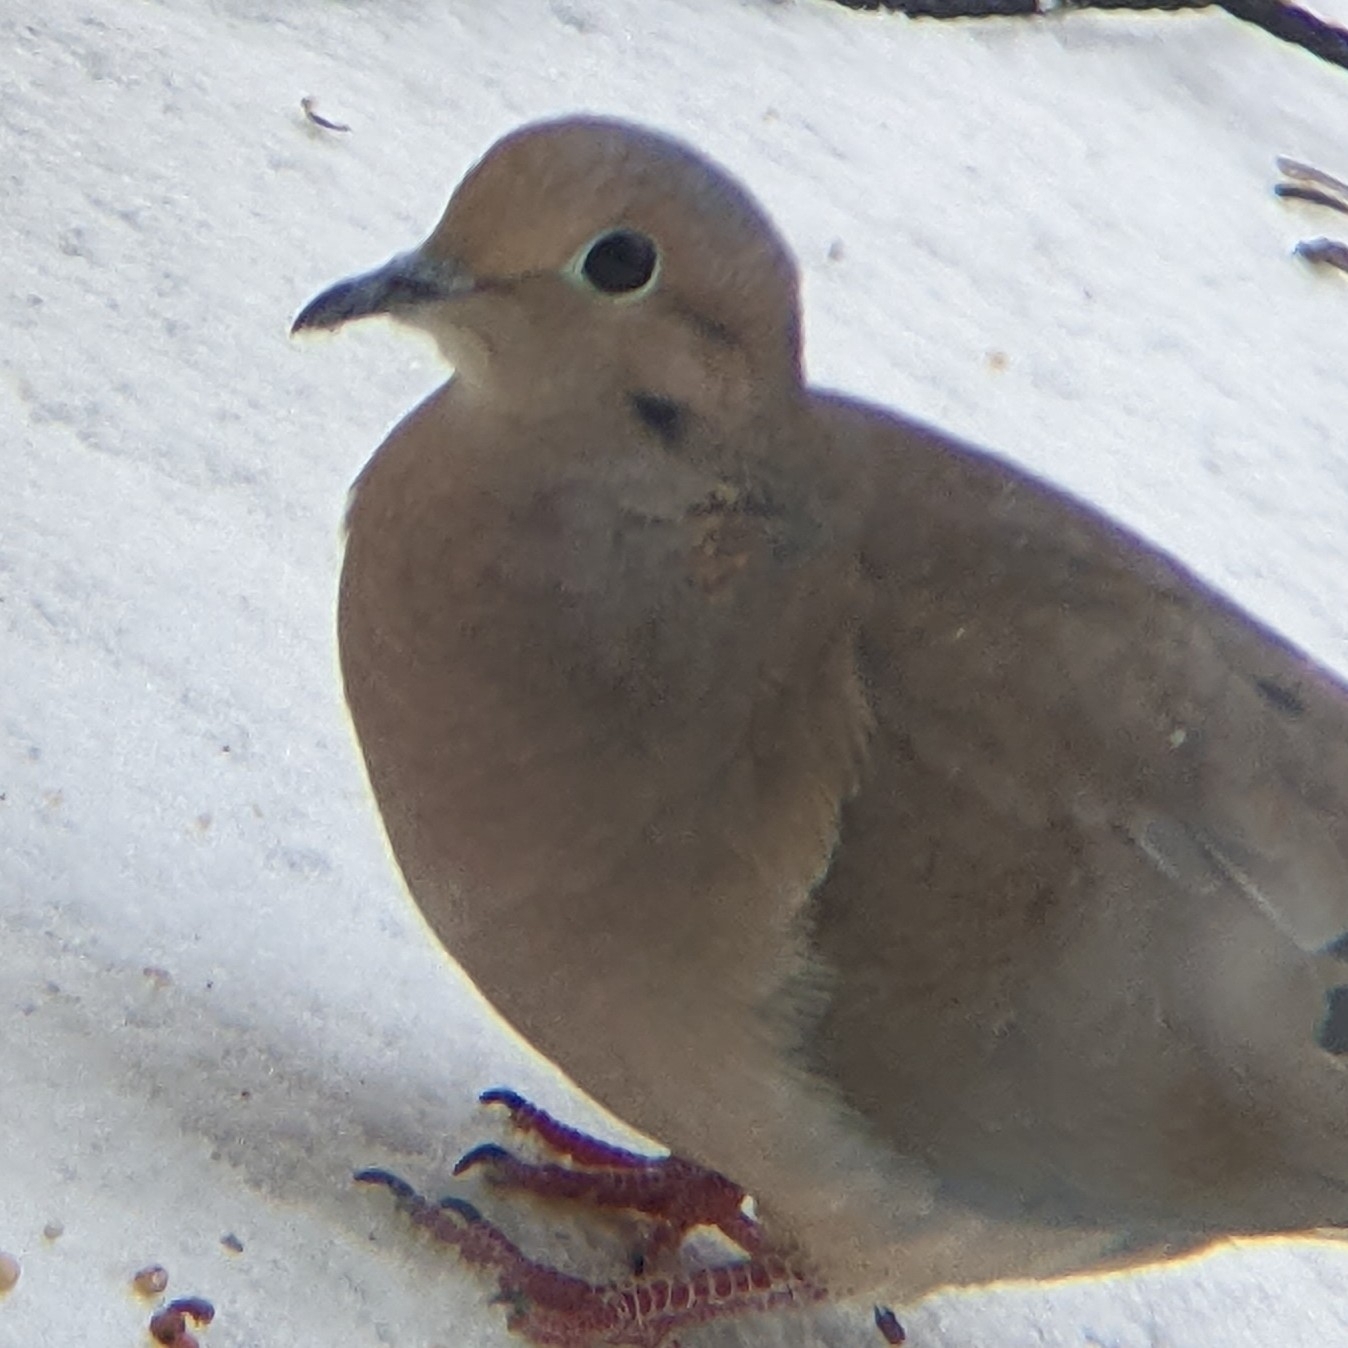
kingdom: Animalia
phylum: Chordata
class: Aves
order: Columbiformes
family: Columbidae
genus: Zenaida
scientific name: Zenaida macroura
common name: Mourning dove
